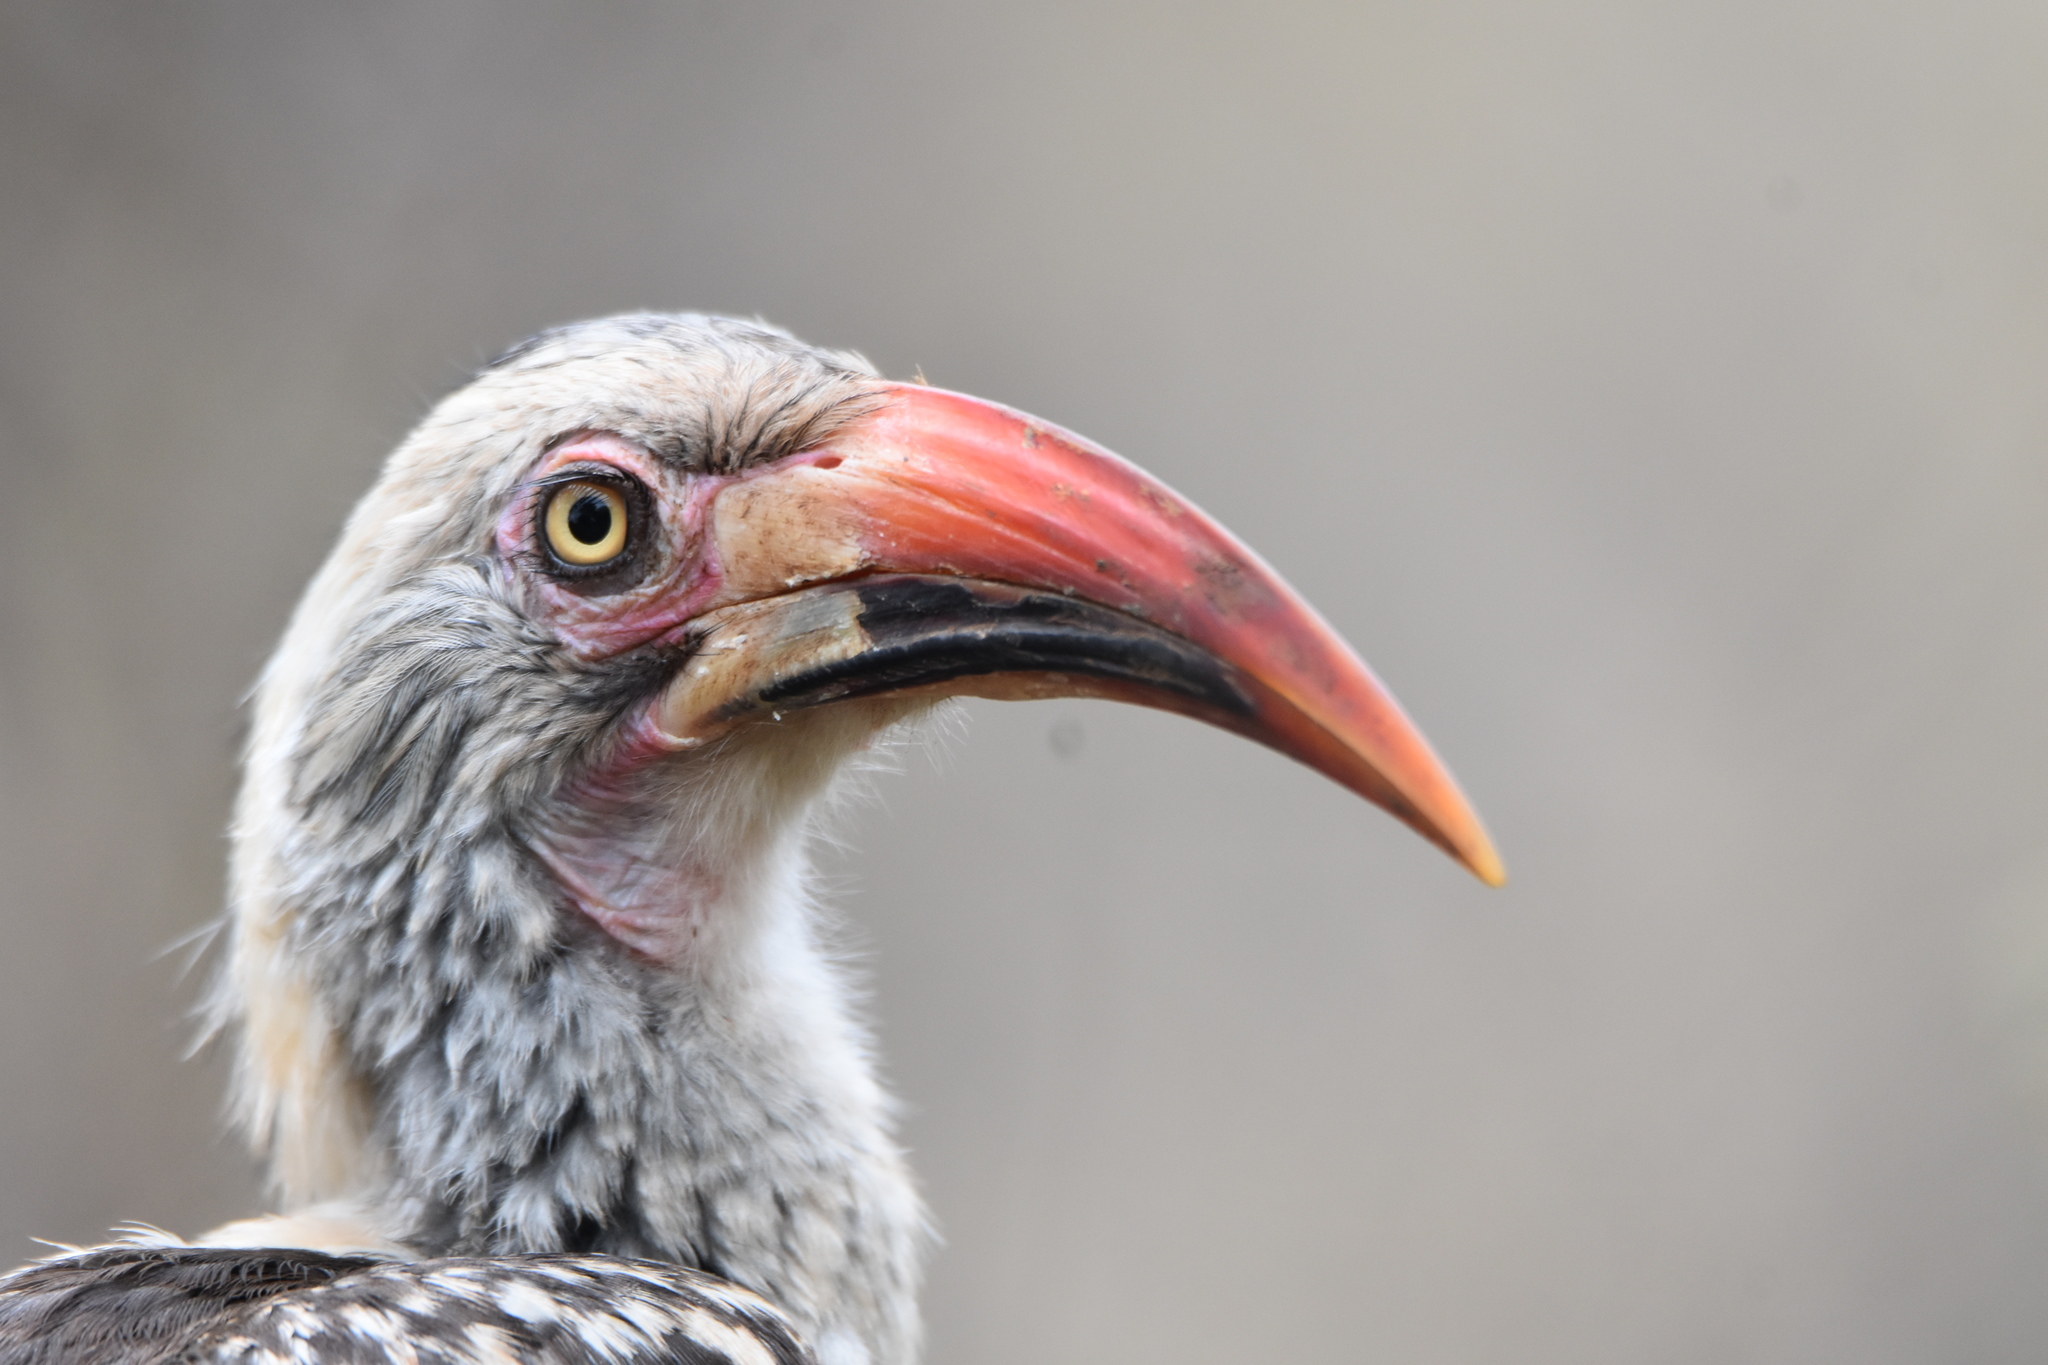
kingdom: Animalia
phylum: Chordata
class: Aves
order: Bucerotiformes
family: Bucerotidae
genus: Tockus
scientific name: Tockus rufirostris
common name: Southern red-billed hornbill
